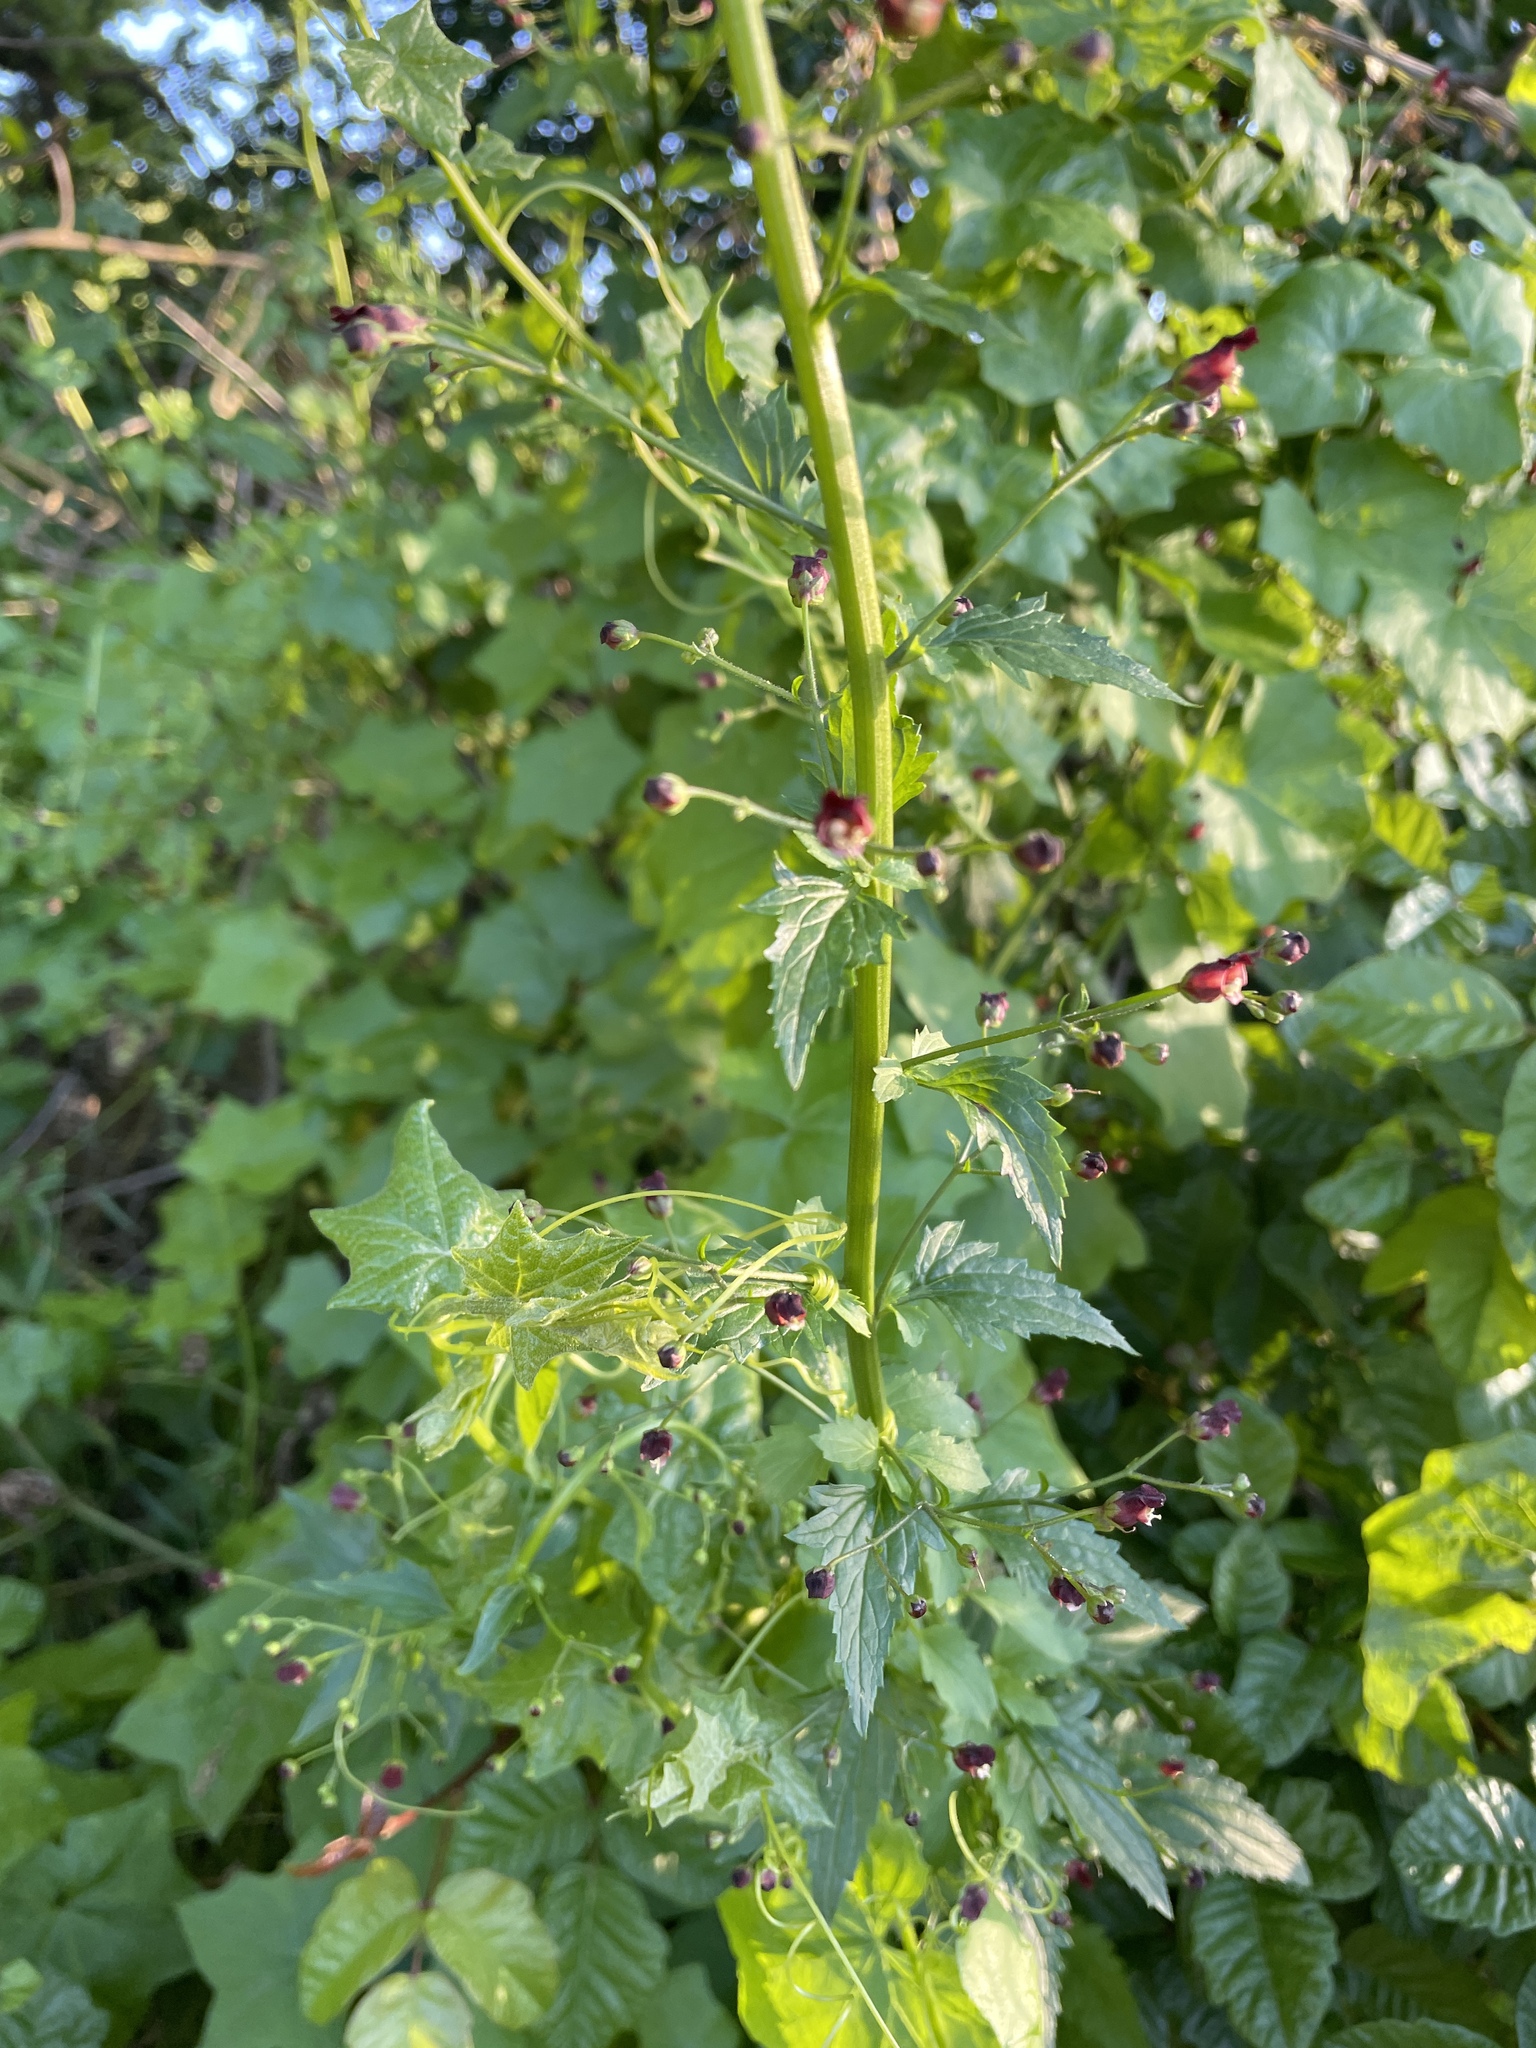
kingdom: Plantae
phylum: Tracheophyta
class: Magnoliopsida
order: Lamiales
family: Scrophulariaceae
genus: Scrophularia
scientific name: Scrophularia californica
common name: California figwort
